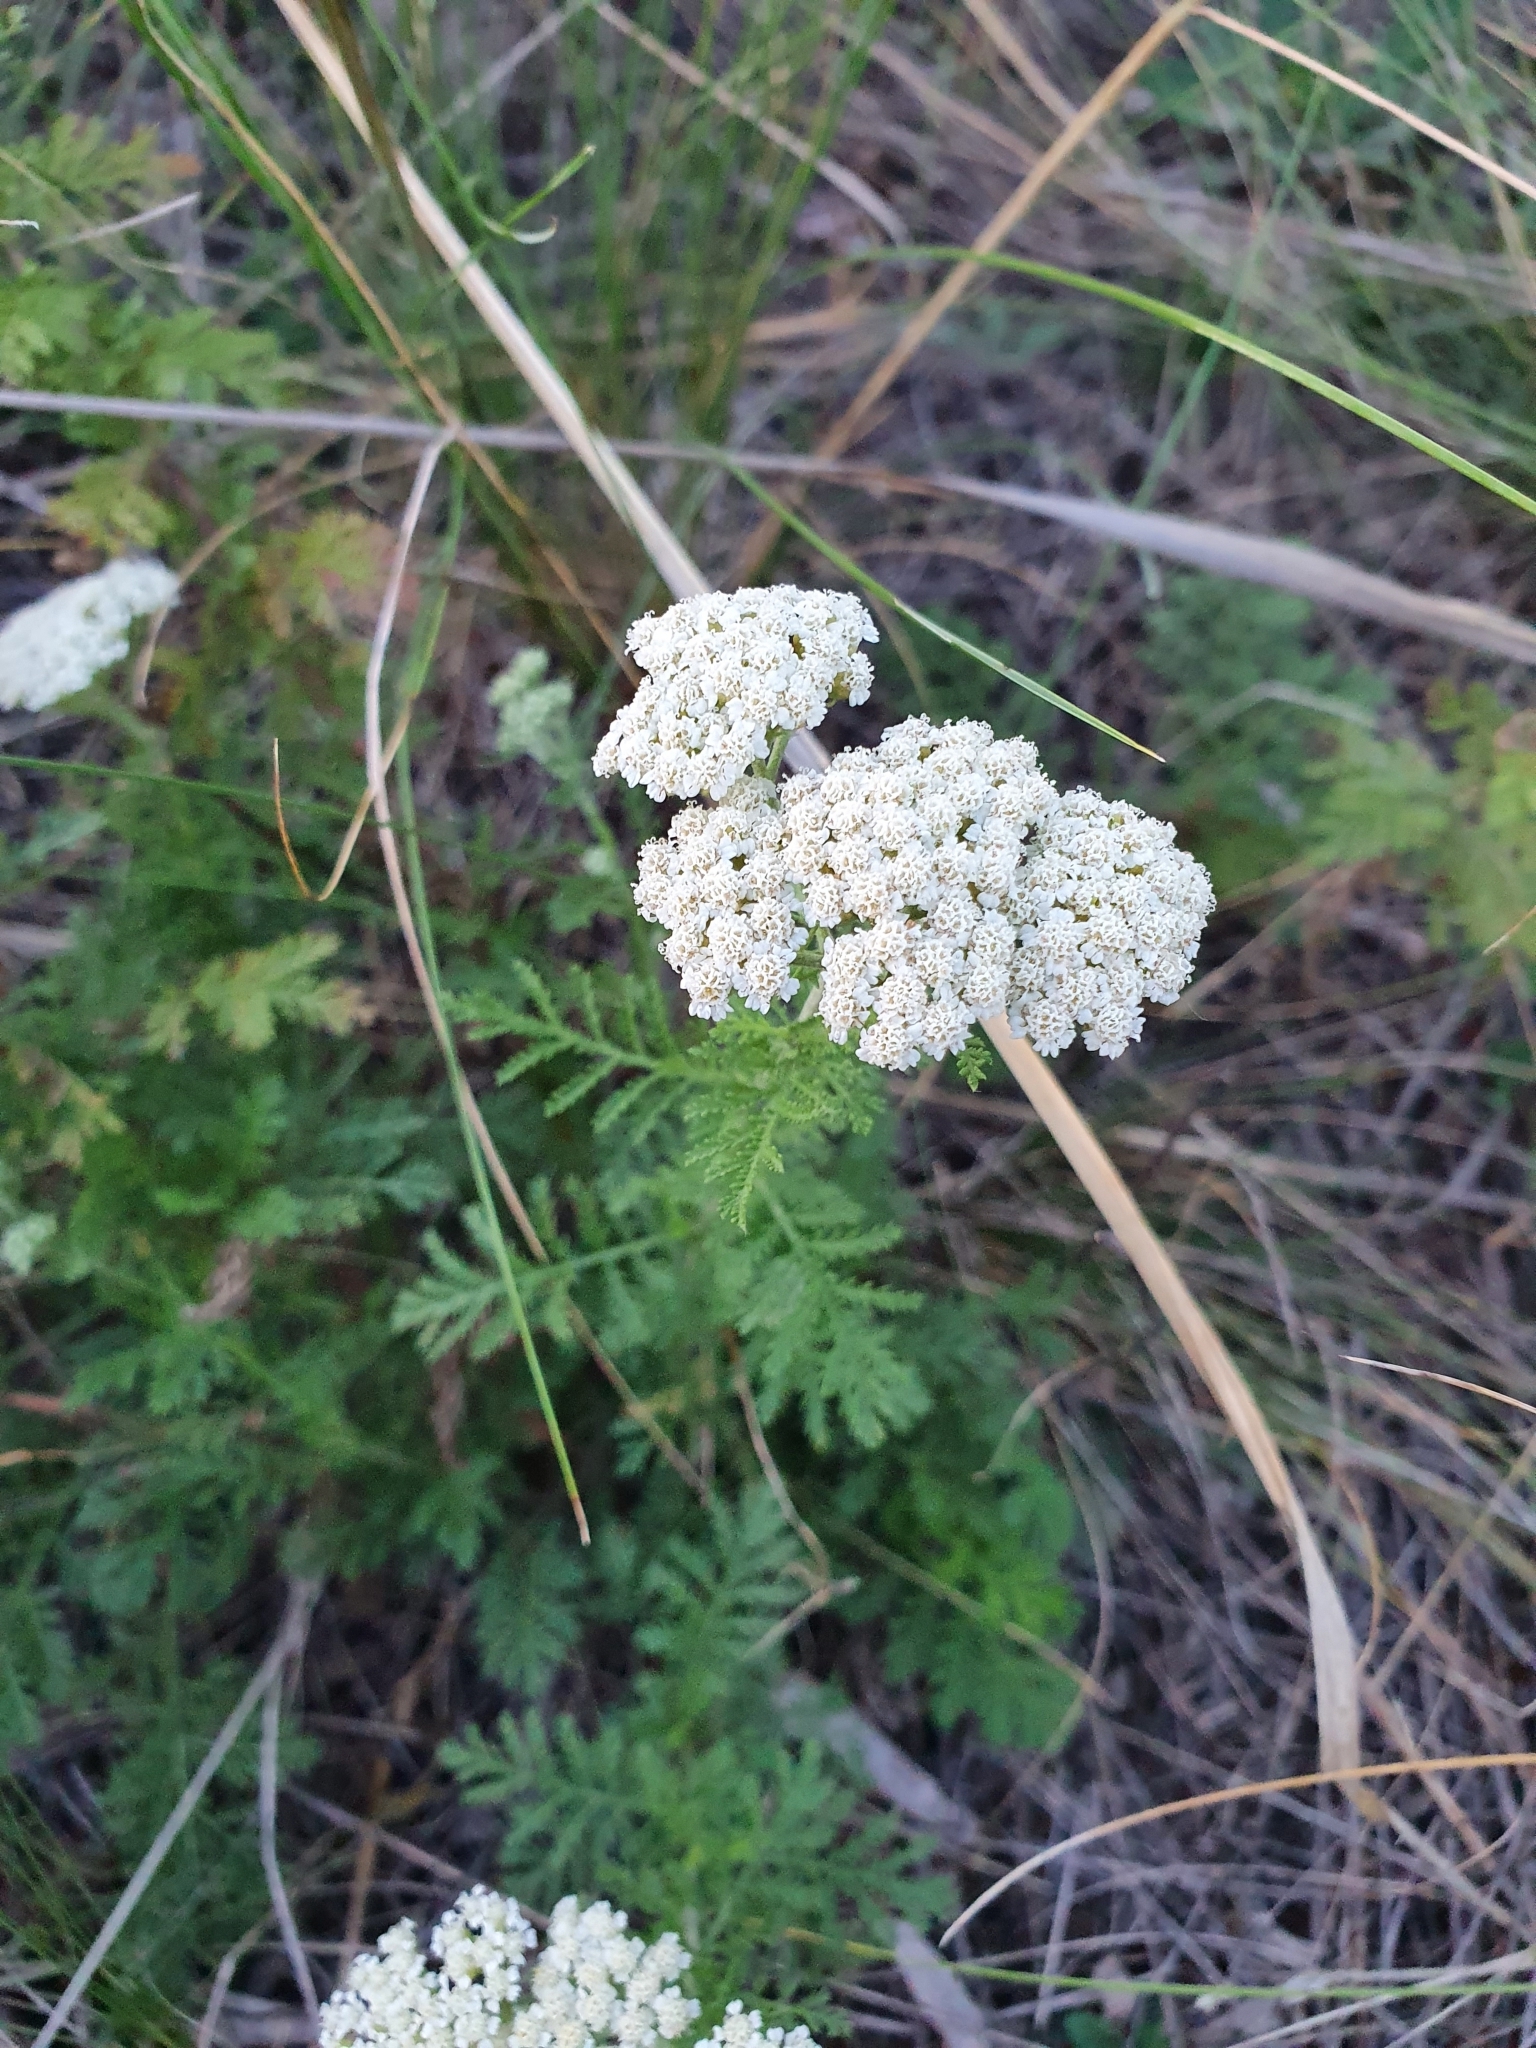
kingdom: Plantae
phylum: Tracheophyta
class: Magnoliopsida
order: Asterales
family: Asteraceae
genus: Achillea
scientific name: Achillea nobilis
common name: Noble yarrow
